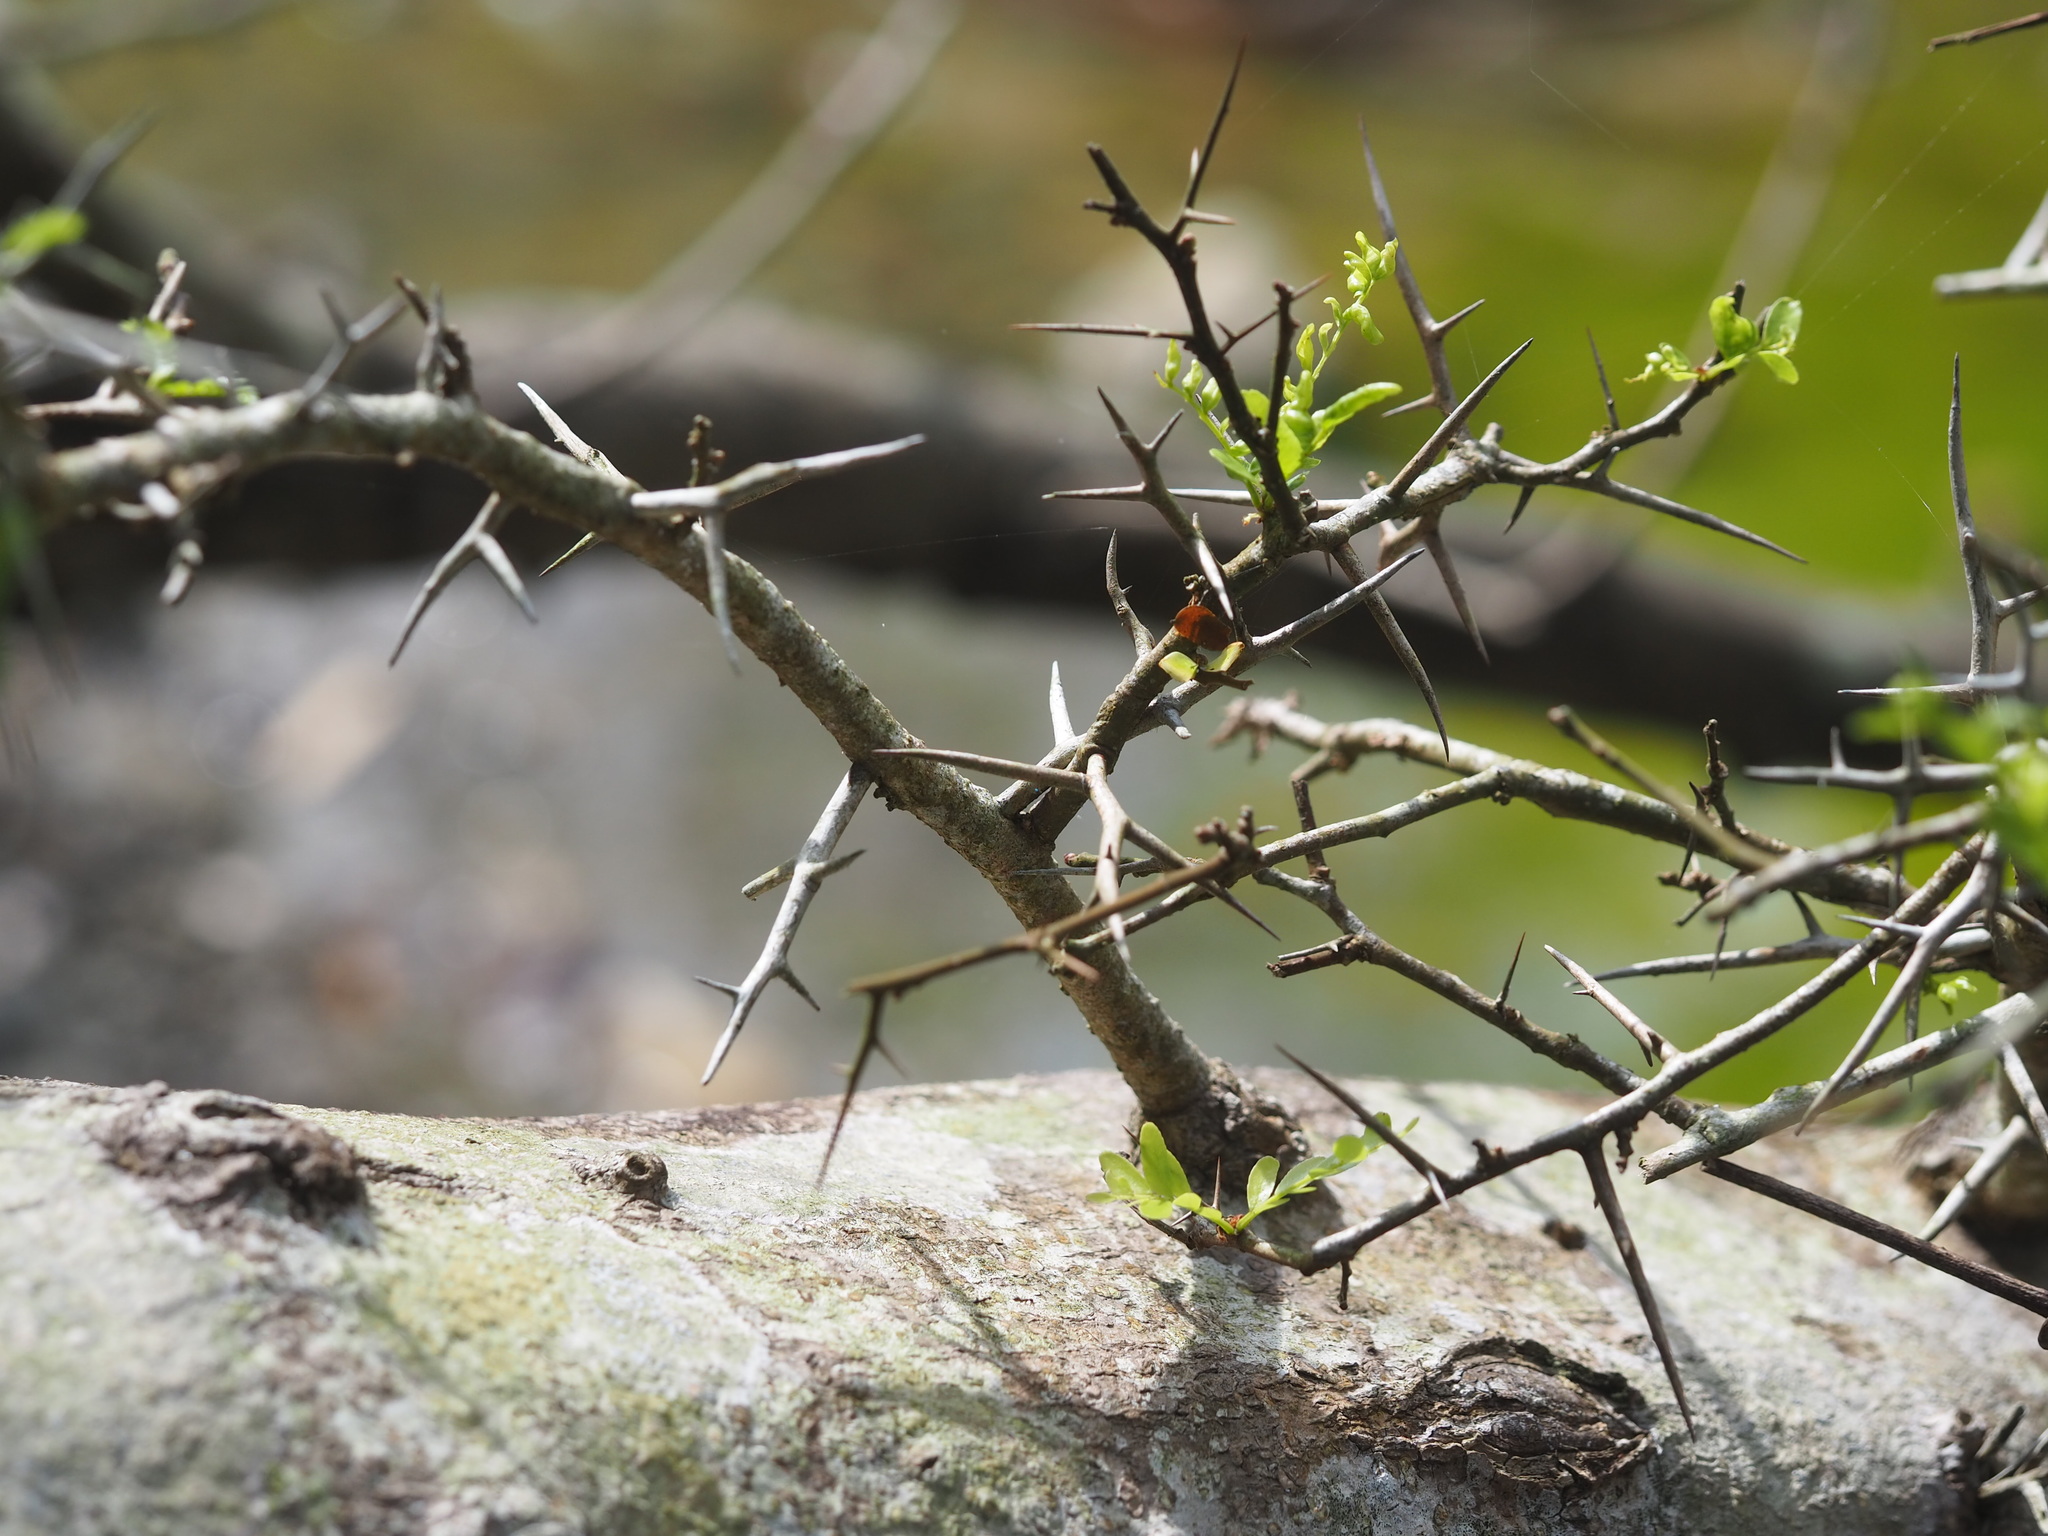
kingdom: Plantae
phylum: Tracheophyta
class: Magnoliopsida
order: Fabales
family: Fabaceae
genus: Gleditsia
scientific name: Gleditsia rolfei
